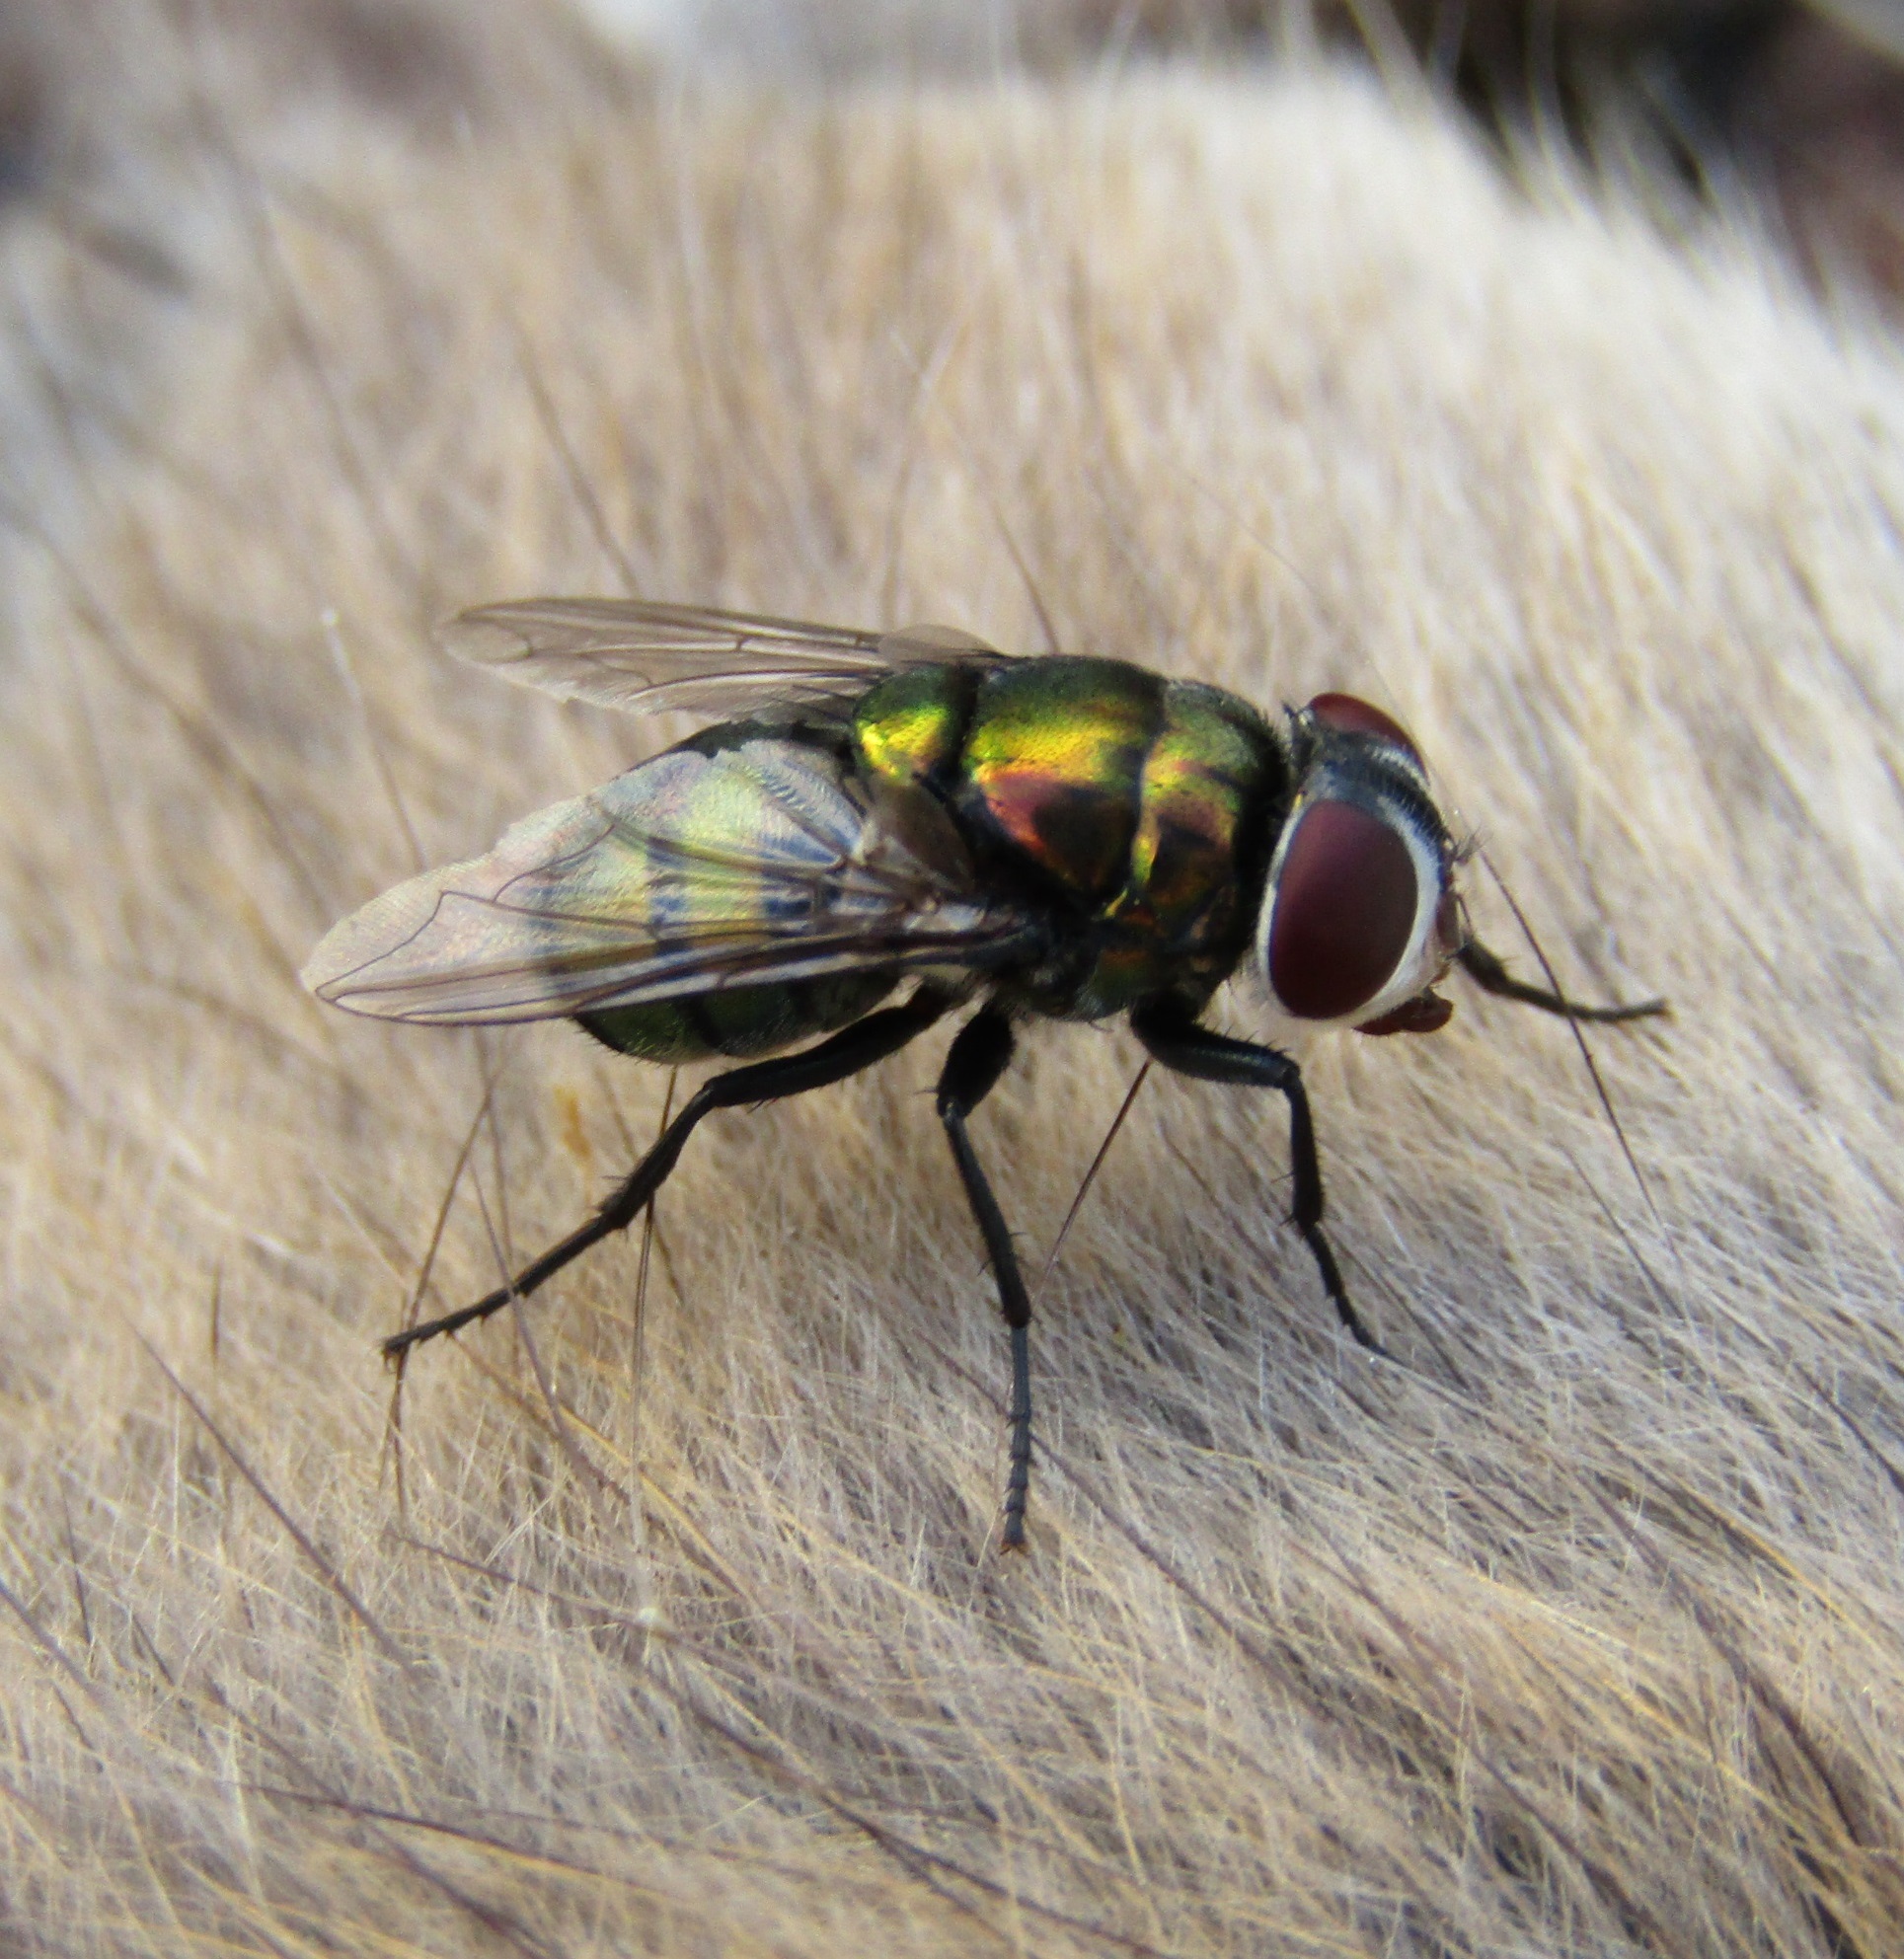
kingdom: Animalia
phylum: Arthropoda
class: Insecta
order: Diptera
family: Calliphoridae
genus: Chrysomya
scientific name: Chrysomya rufifacies
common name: Blow fly
